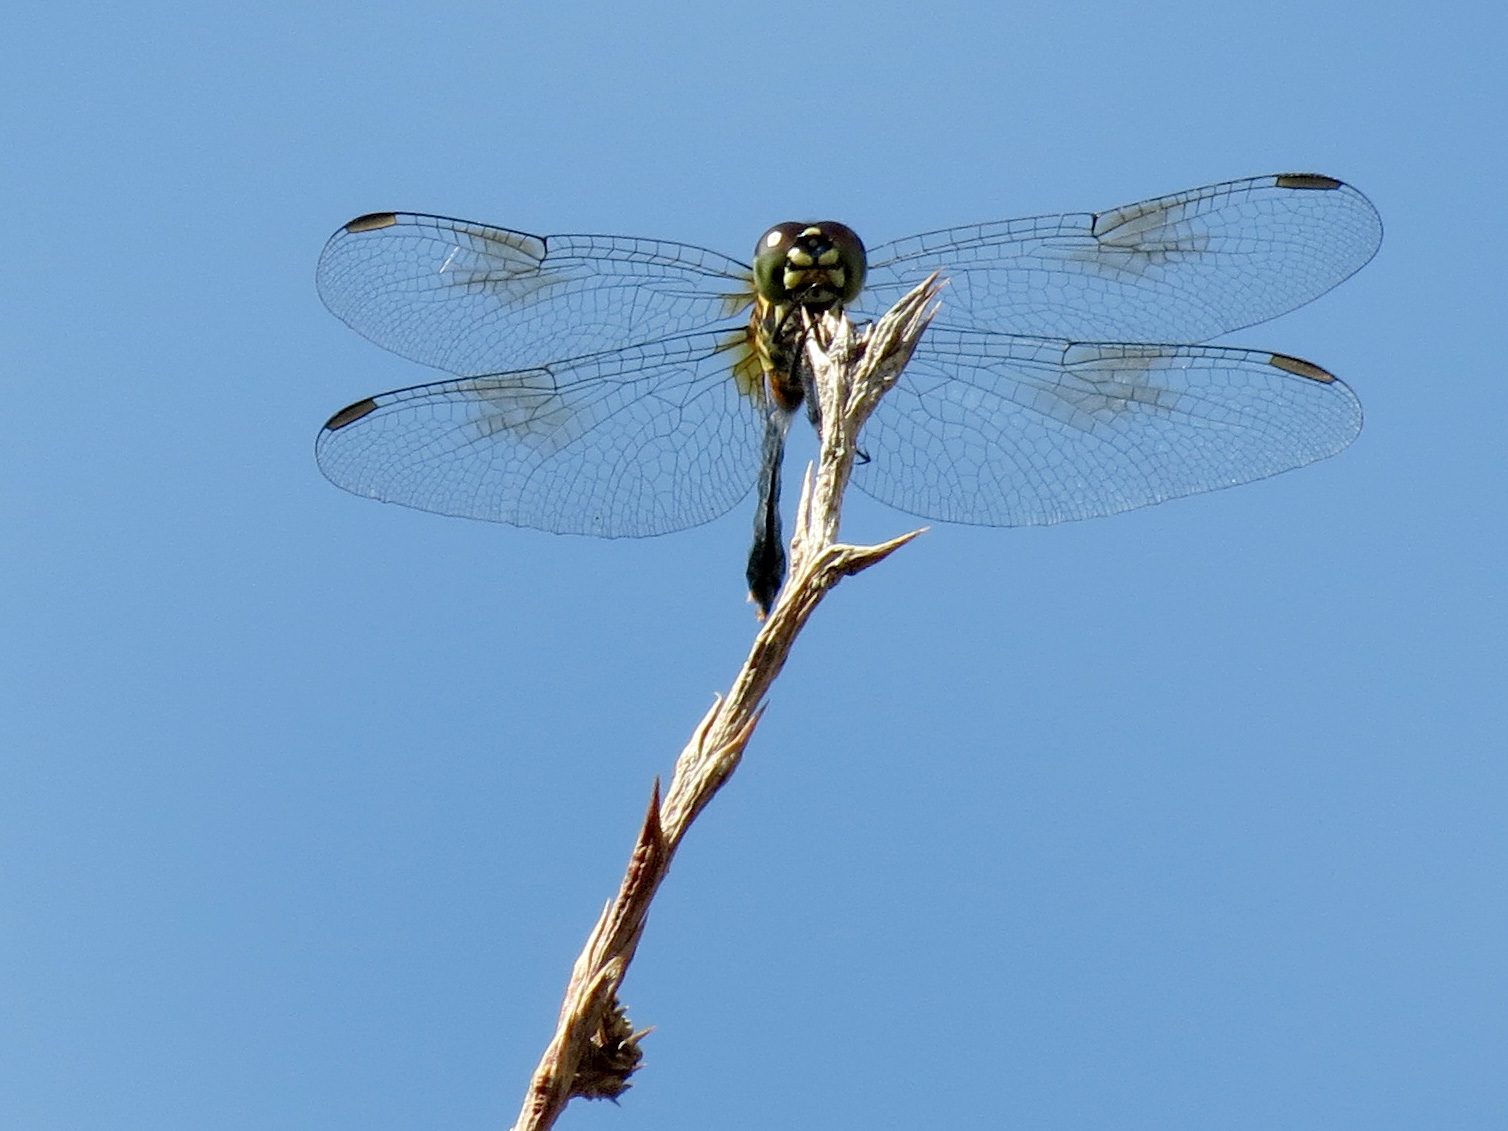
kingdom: Animalia
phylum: Arthropoda
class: Insecta
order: Odonata
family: Libellulidae
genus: Erythrodiplax
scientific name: Erythrodiplax berenice
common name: Seaside dragonlet
